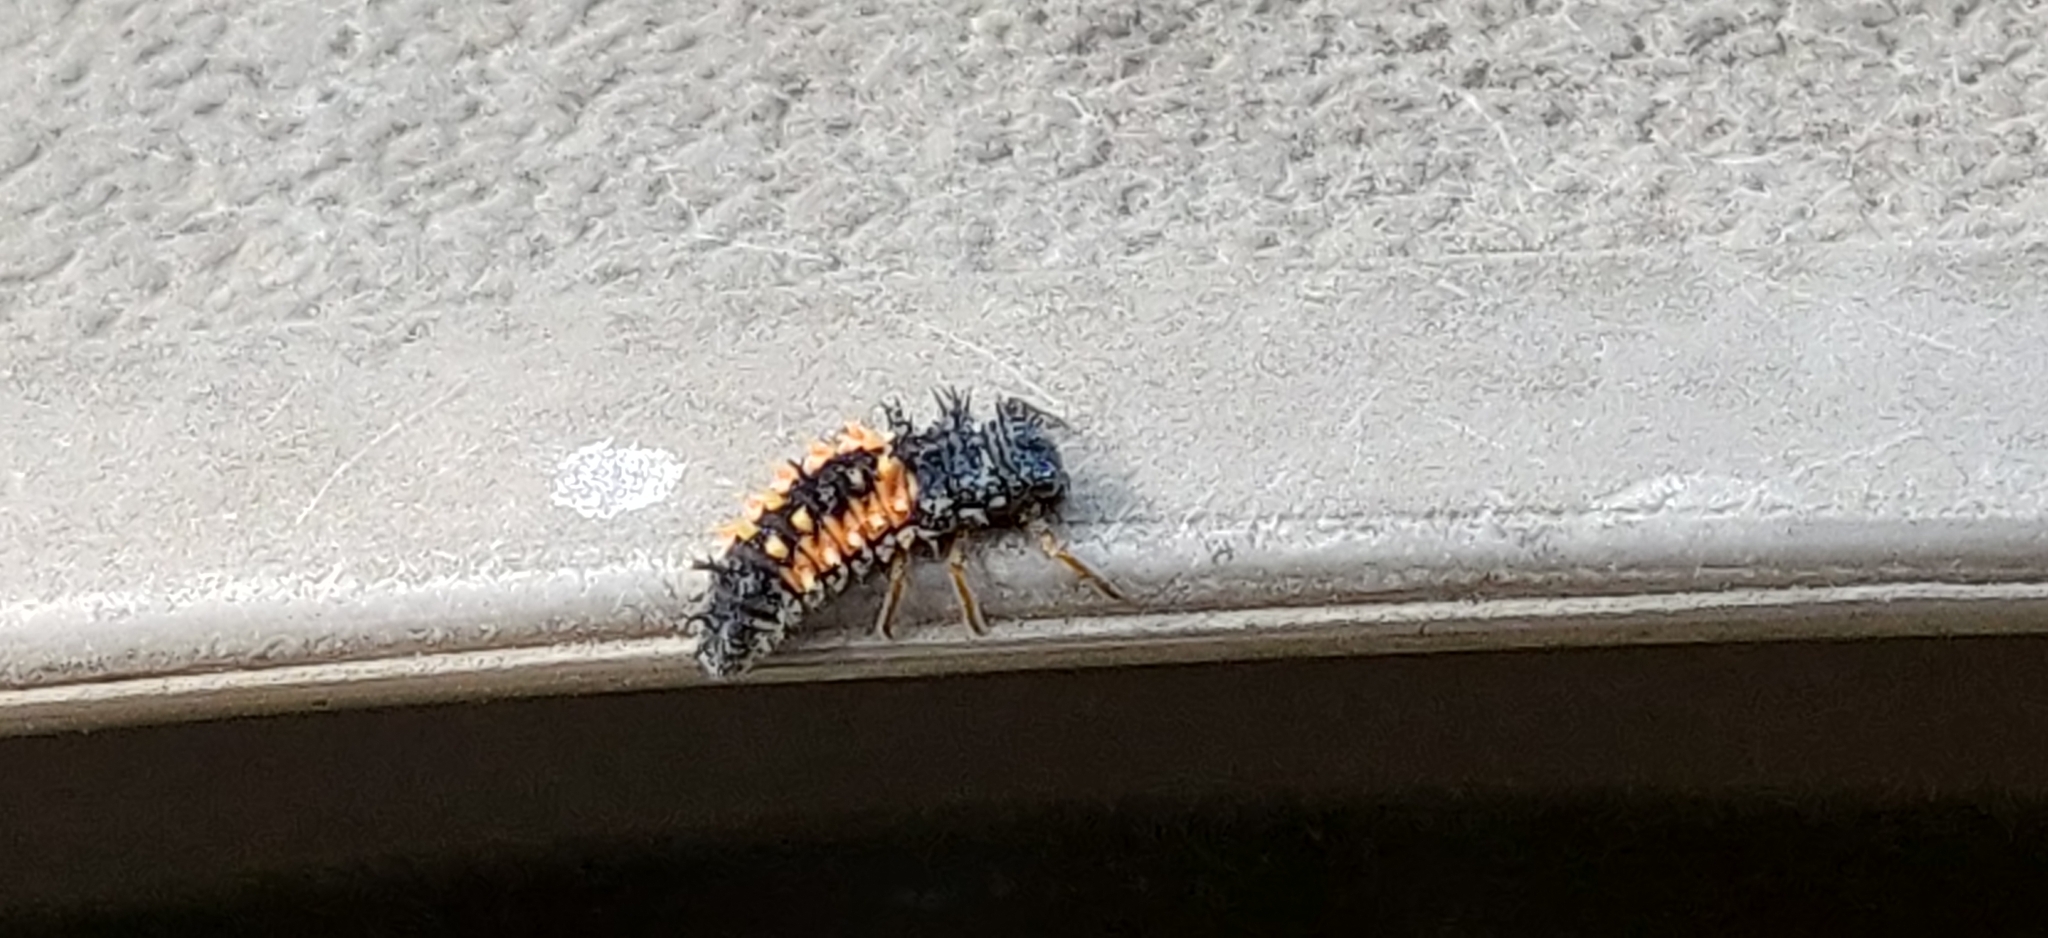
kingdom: Animalia
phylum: Arthropoda
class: Insecta
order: Coleoptera
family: Coccinellidae
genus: Harmonia
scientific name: Harmonia axyridis
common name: Harlequin ladybird
